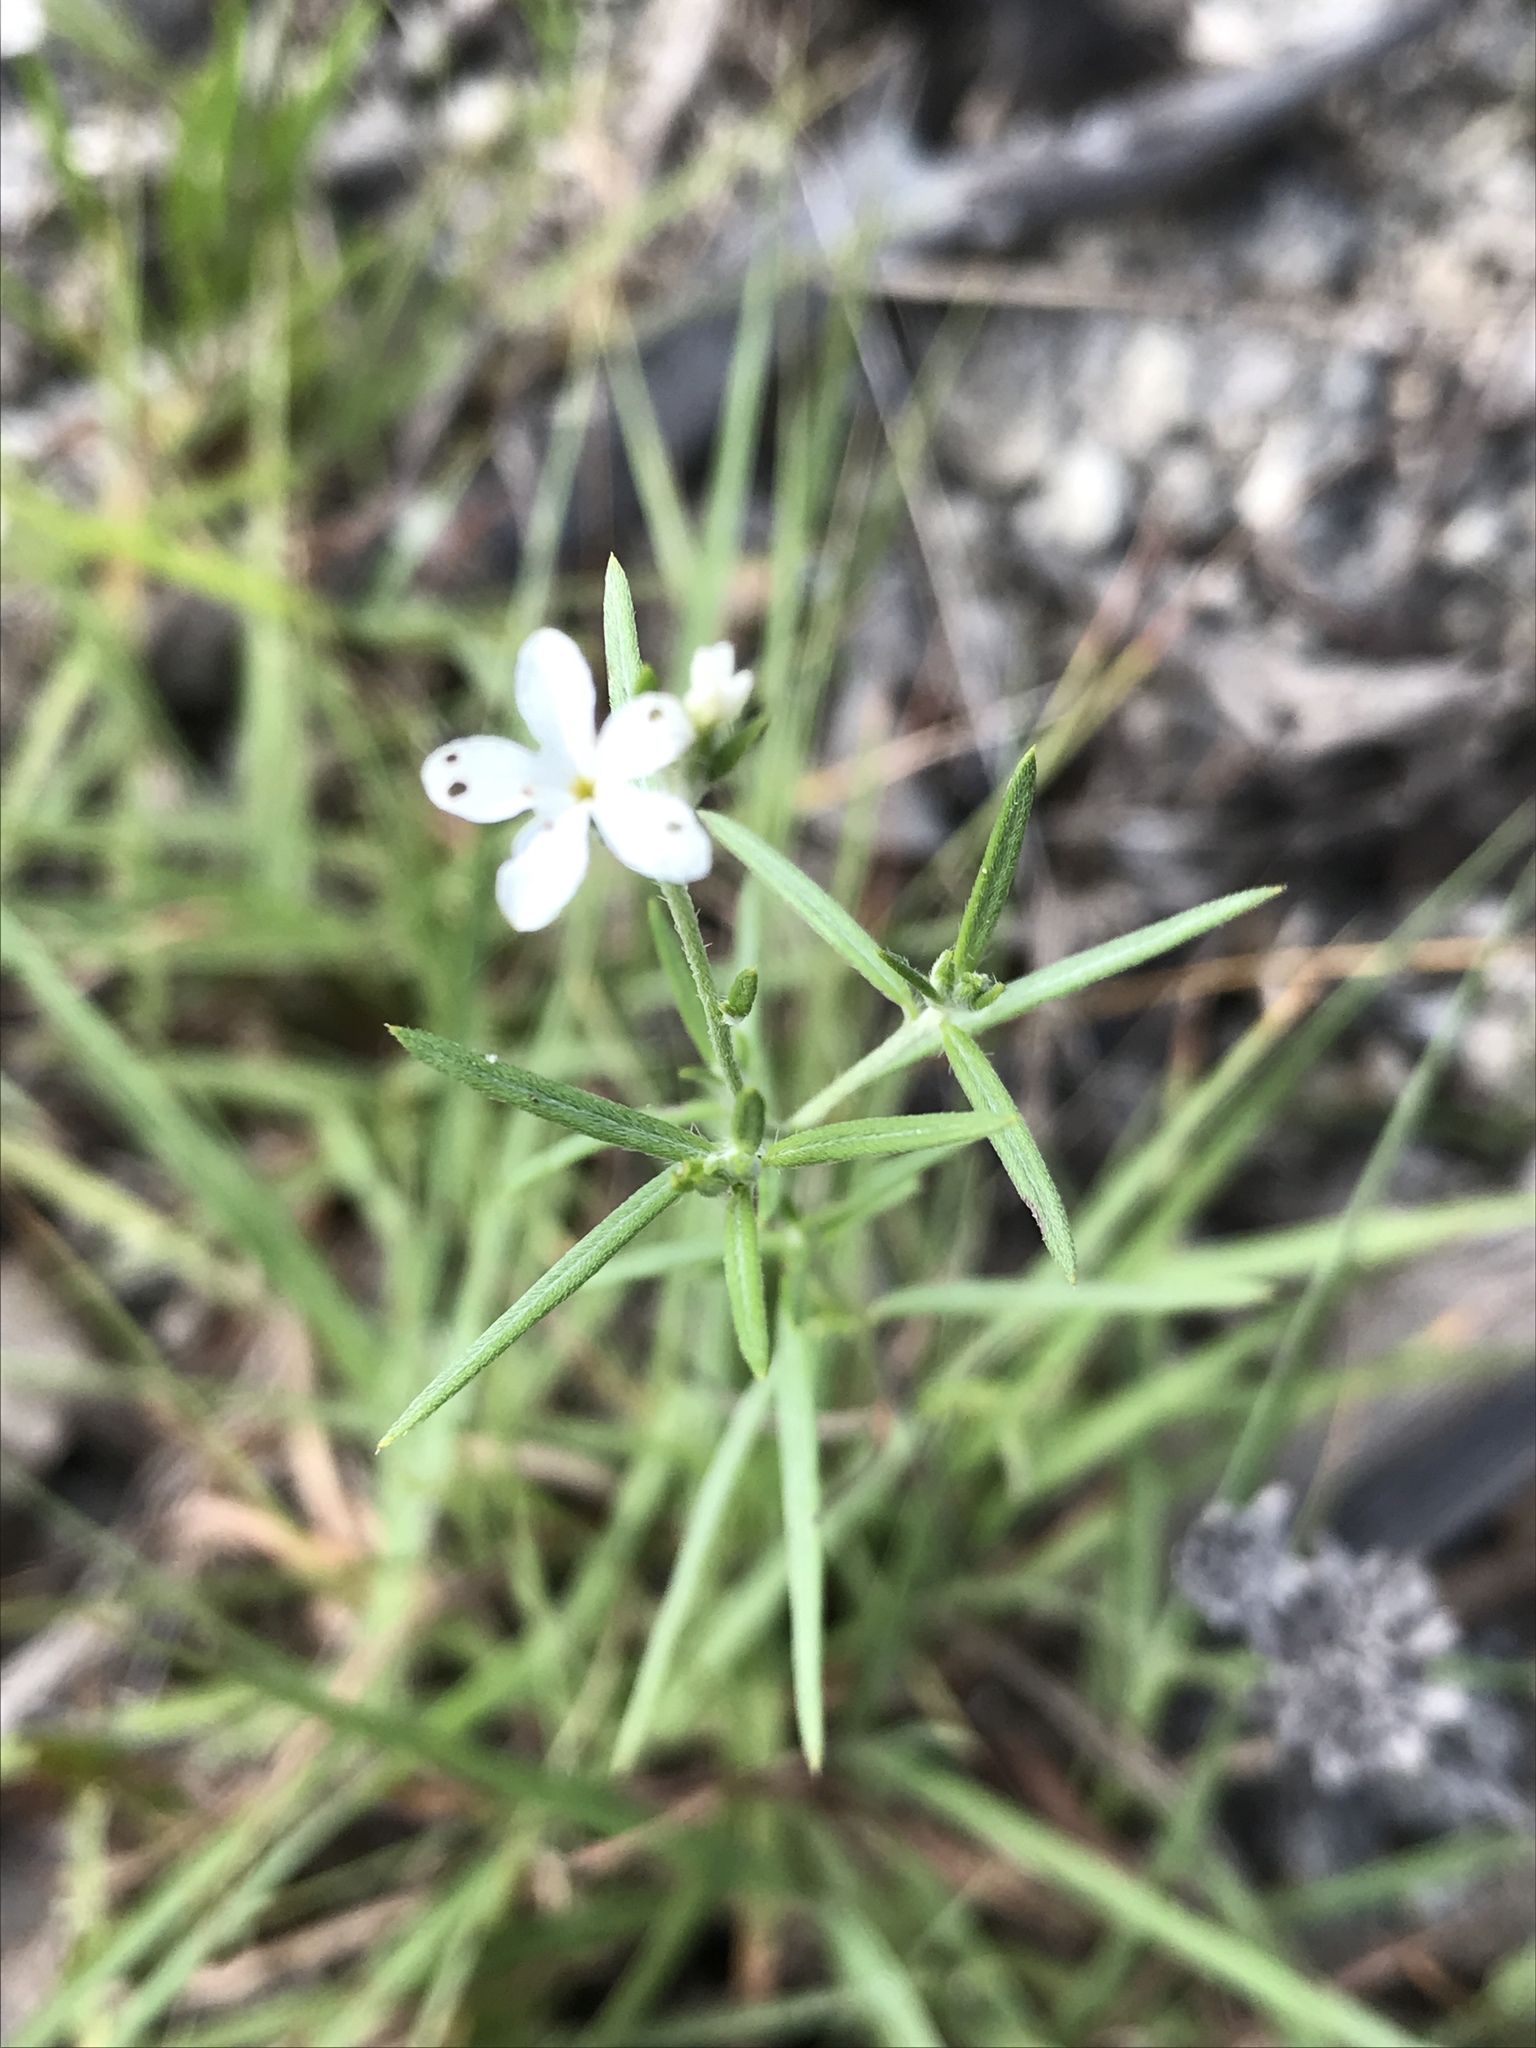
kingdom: Plantae
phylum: Tracheophyta
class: Magnoliopsida
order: Boraginales
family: Heliotropiaceae
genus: Euploca
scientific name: Euploca tenella
